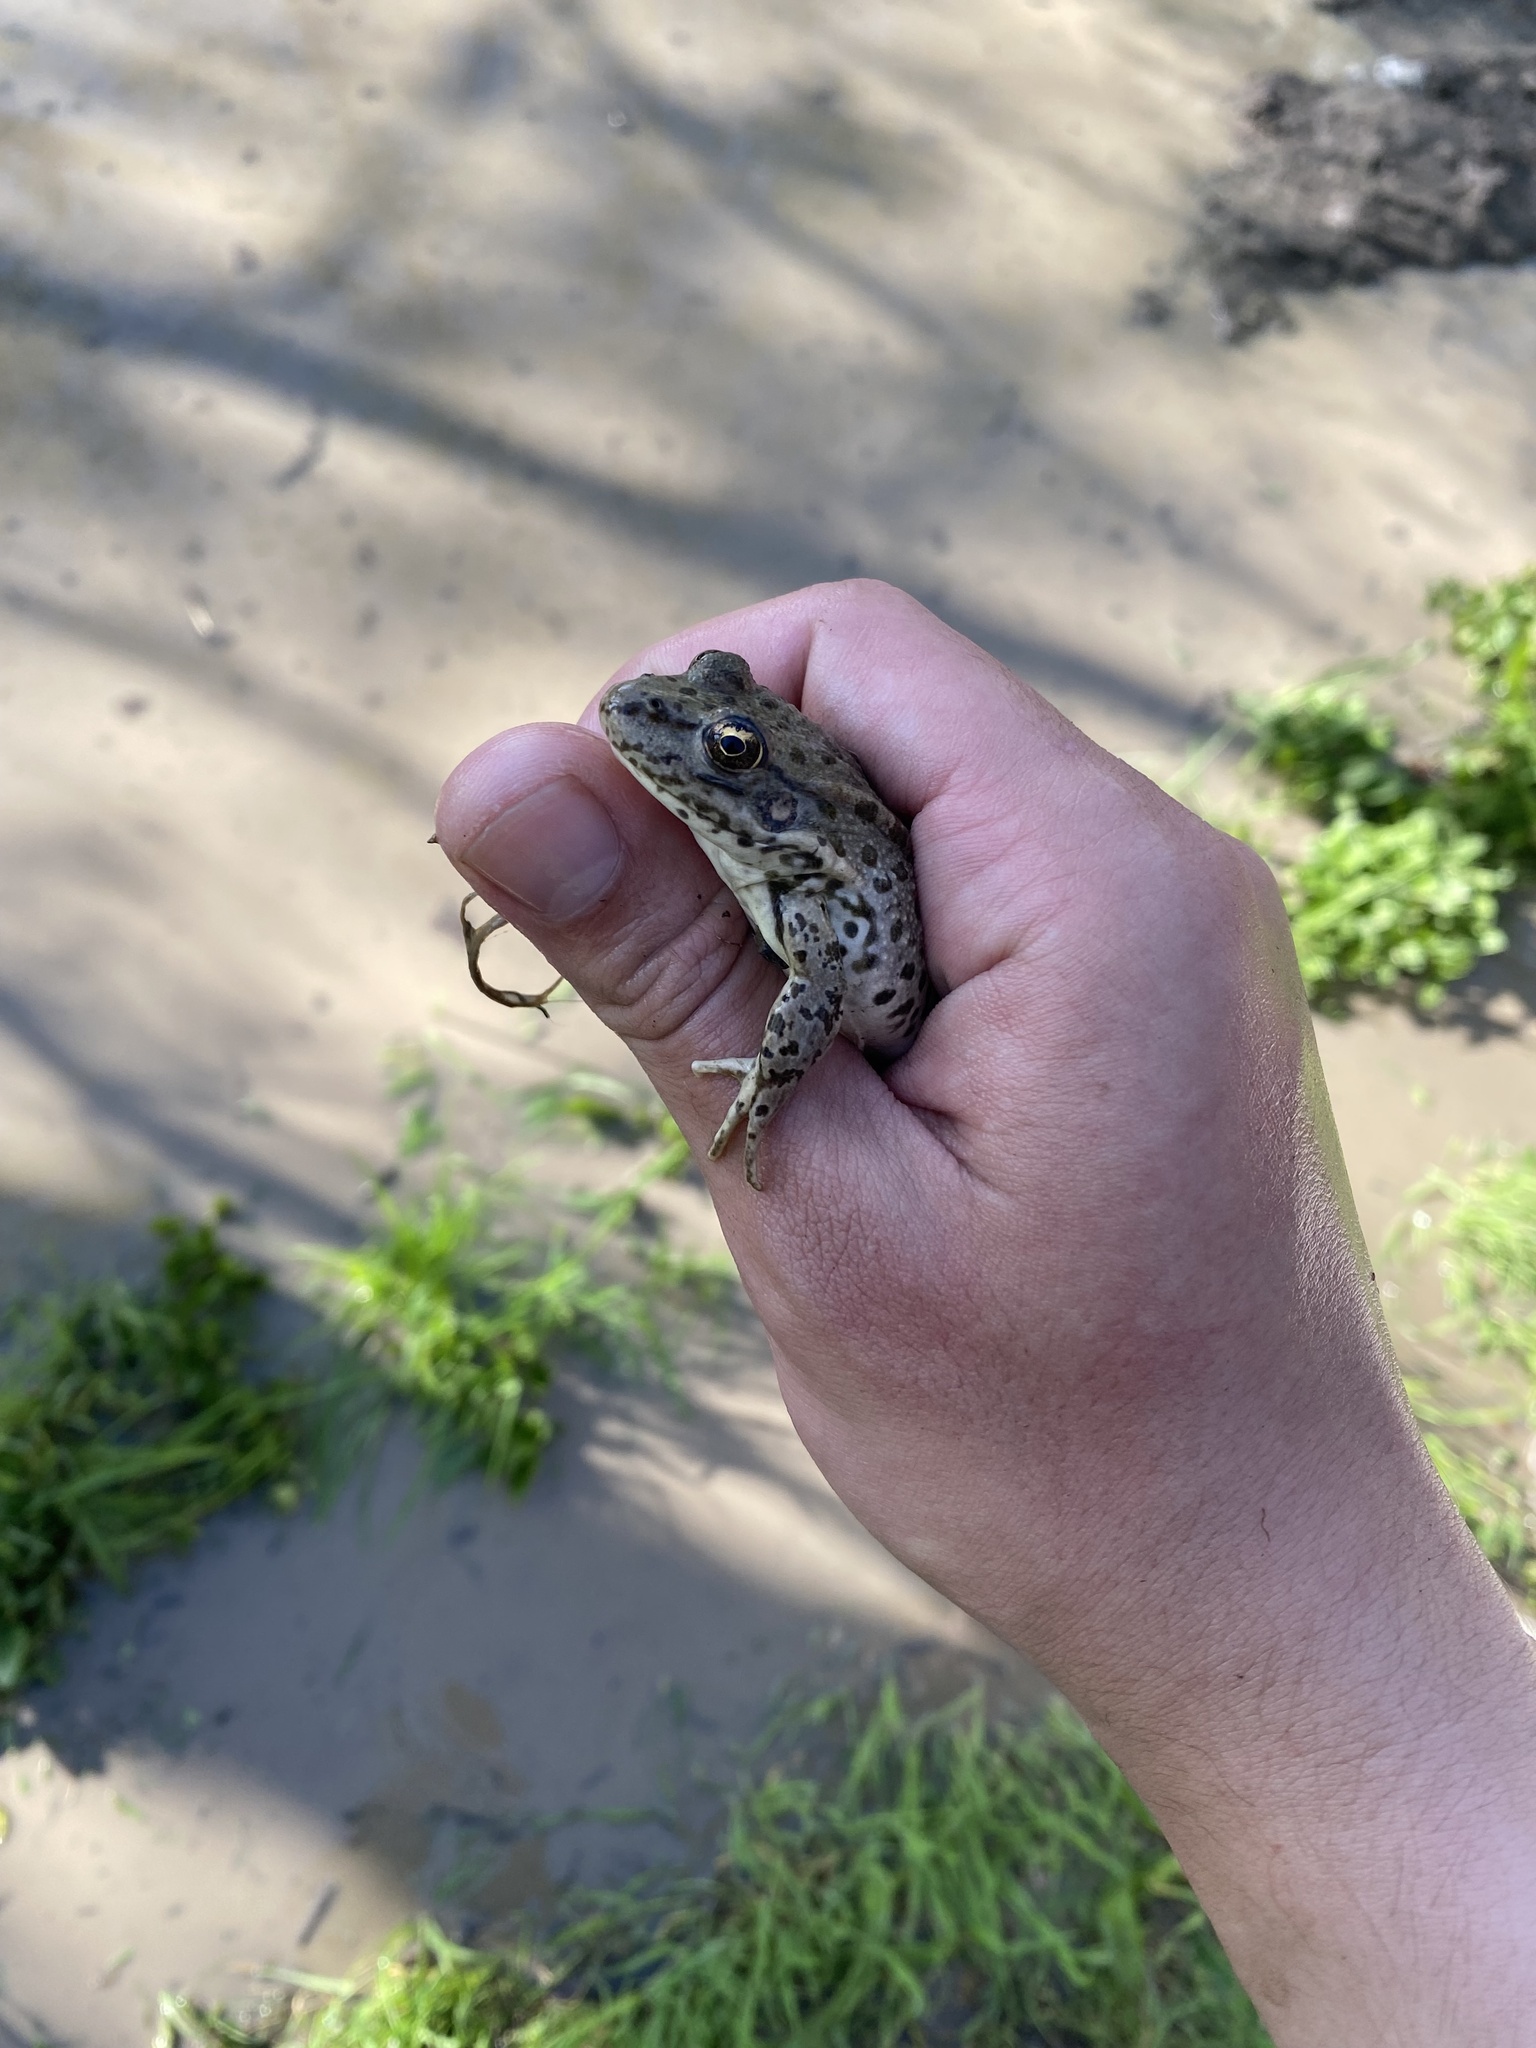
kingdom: Animalia
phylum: Chordata
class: Amphibia
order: Anura
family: Ranidae
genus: Pelophylax
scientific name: Pelophylax ridibundus
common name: Marsh frog
